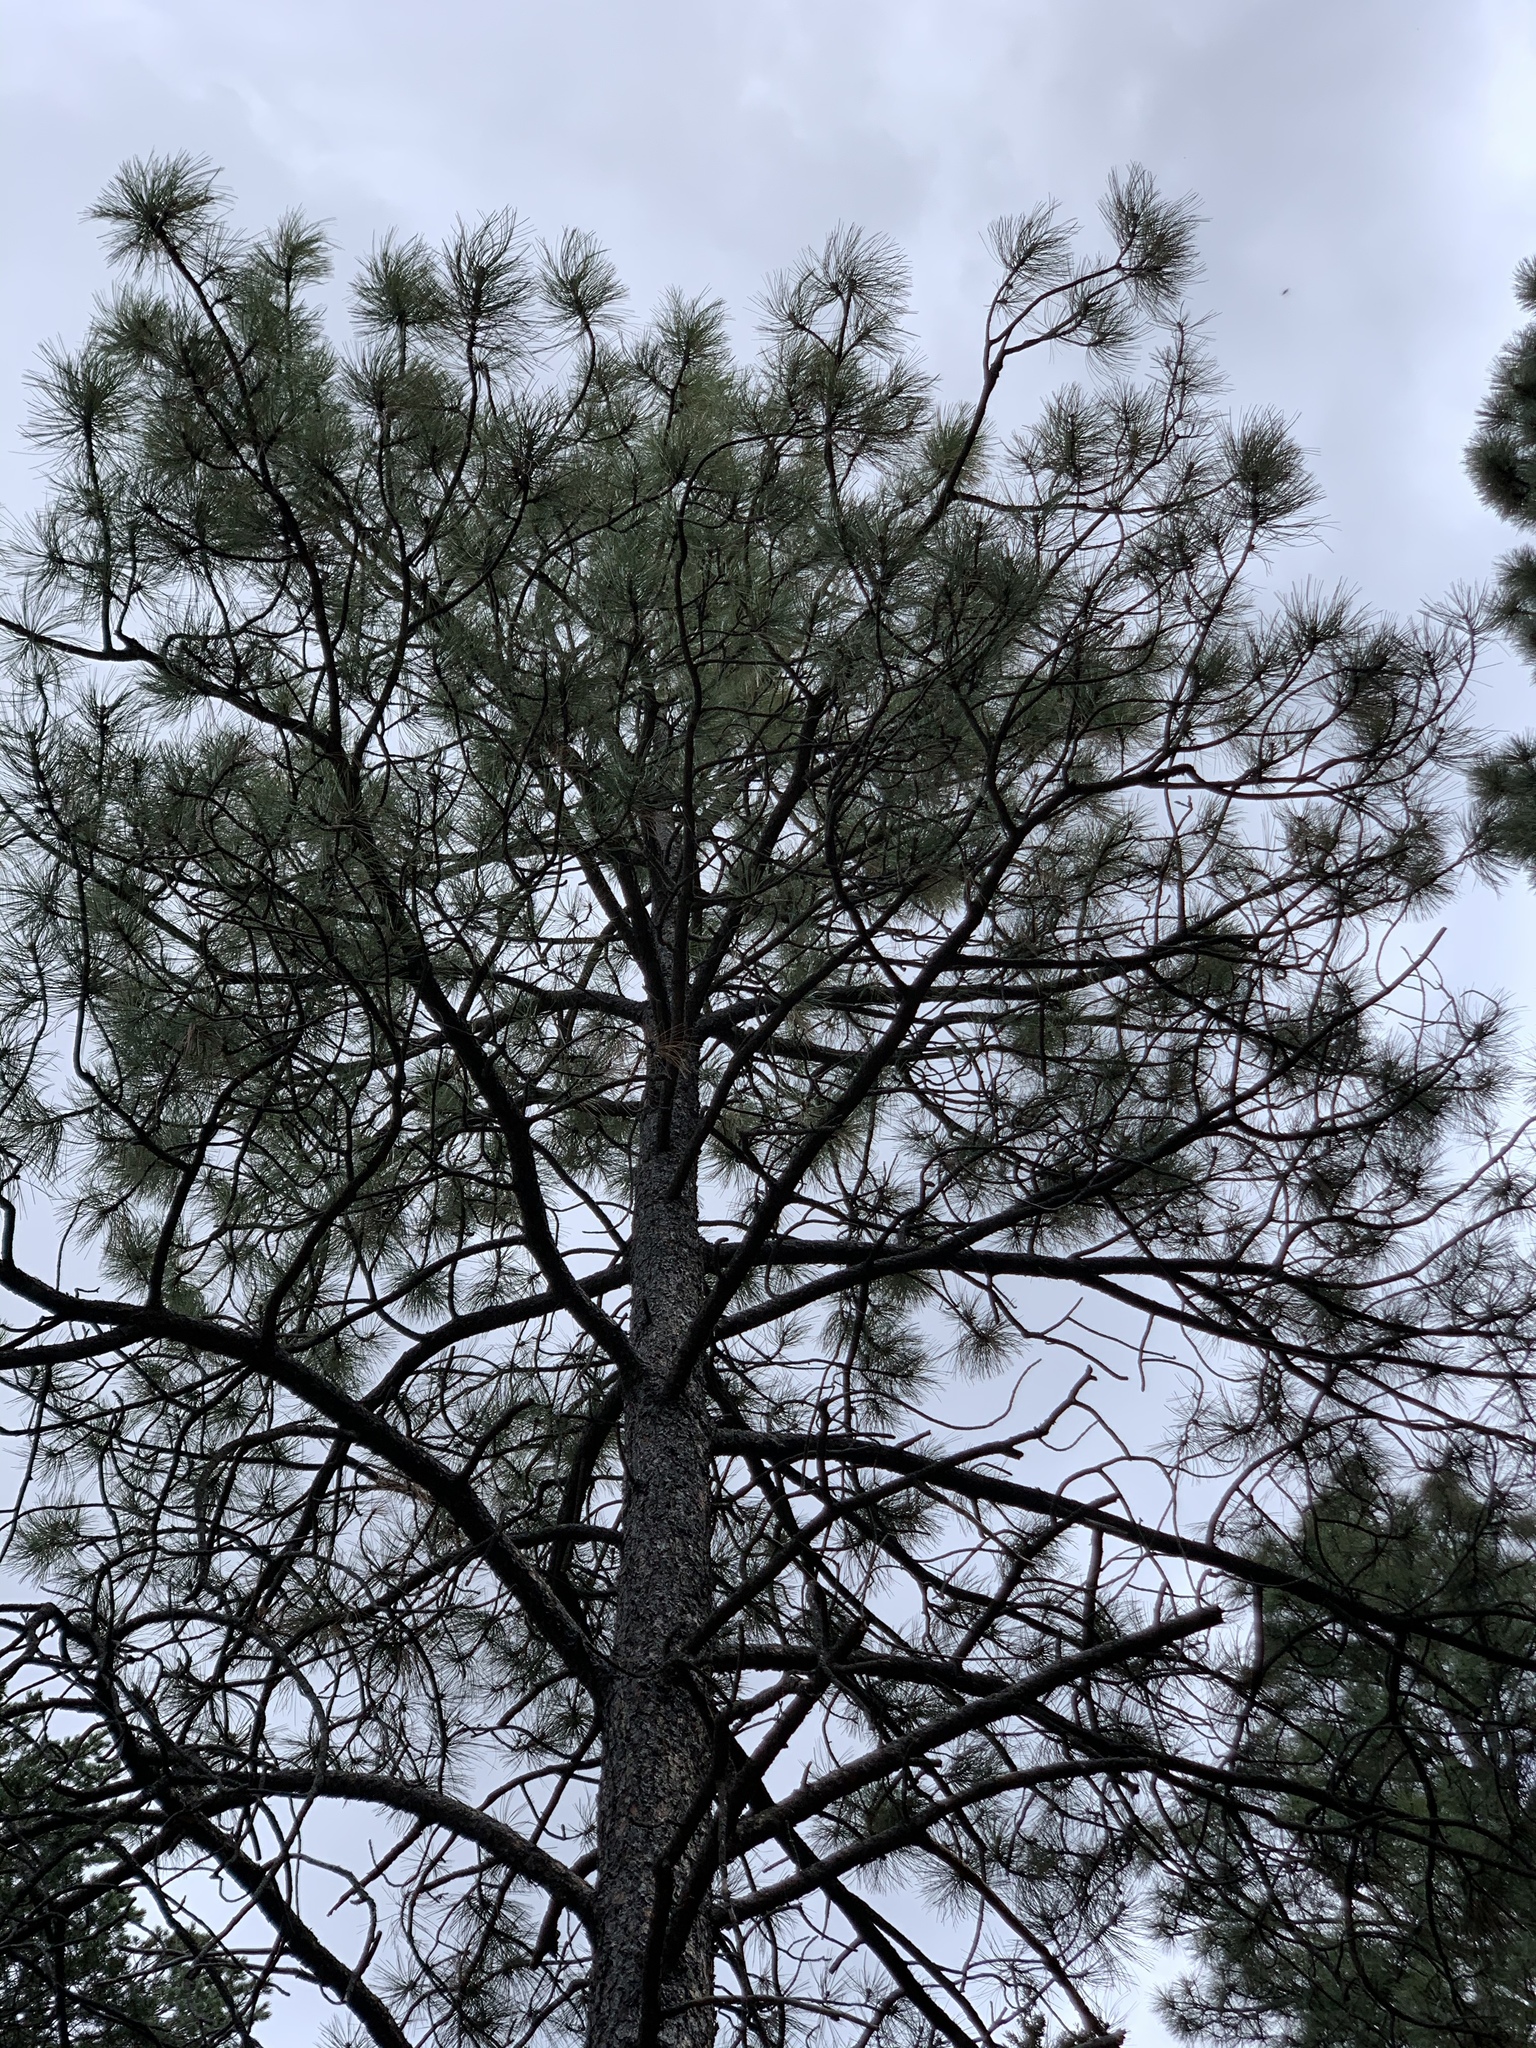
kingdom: Plantae
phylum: Tracheophyta
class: Pinopsida
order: Pinales
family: Pinaceae
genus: Pinus
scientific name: Pinus ponderosa
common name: Western yellow-pine
